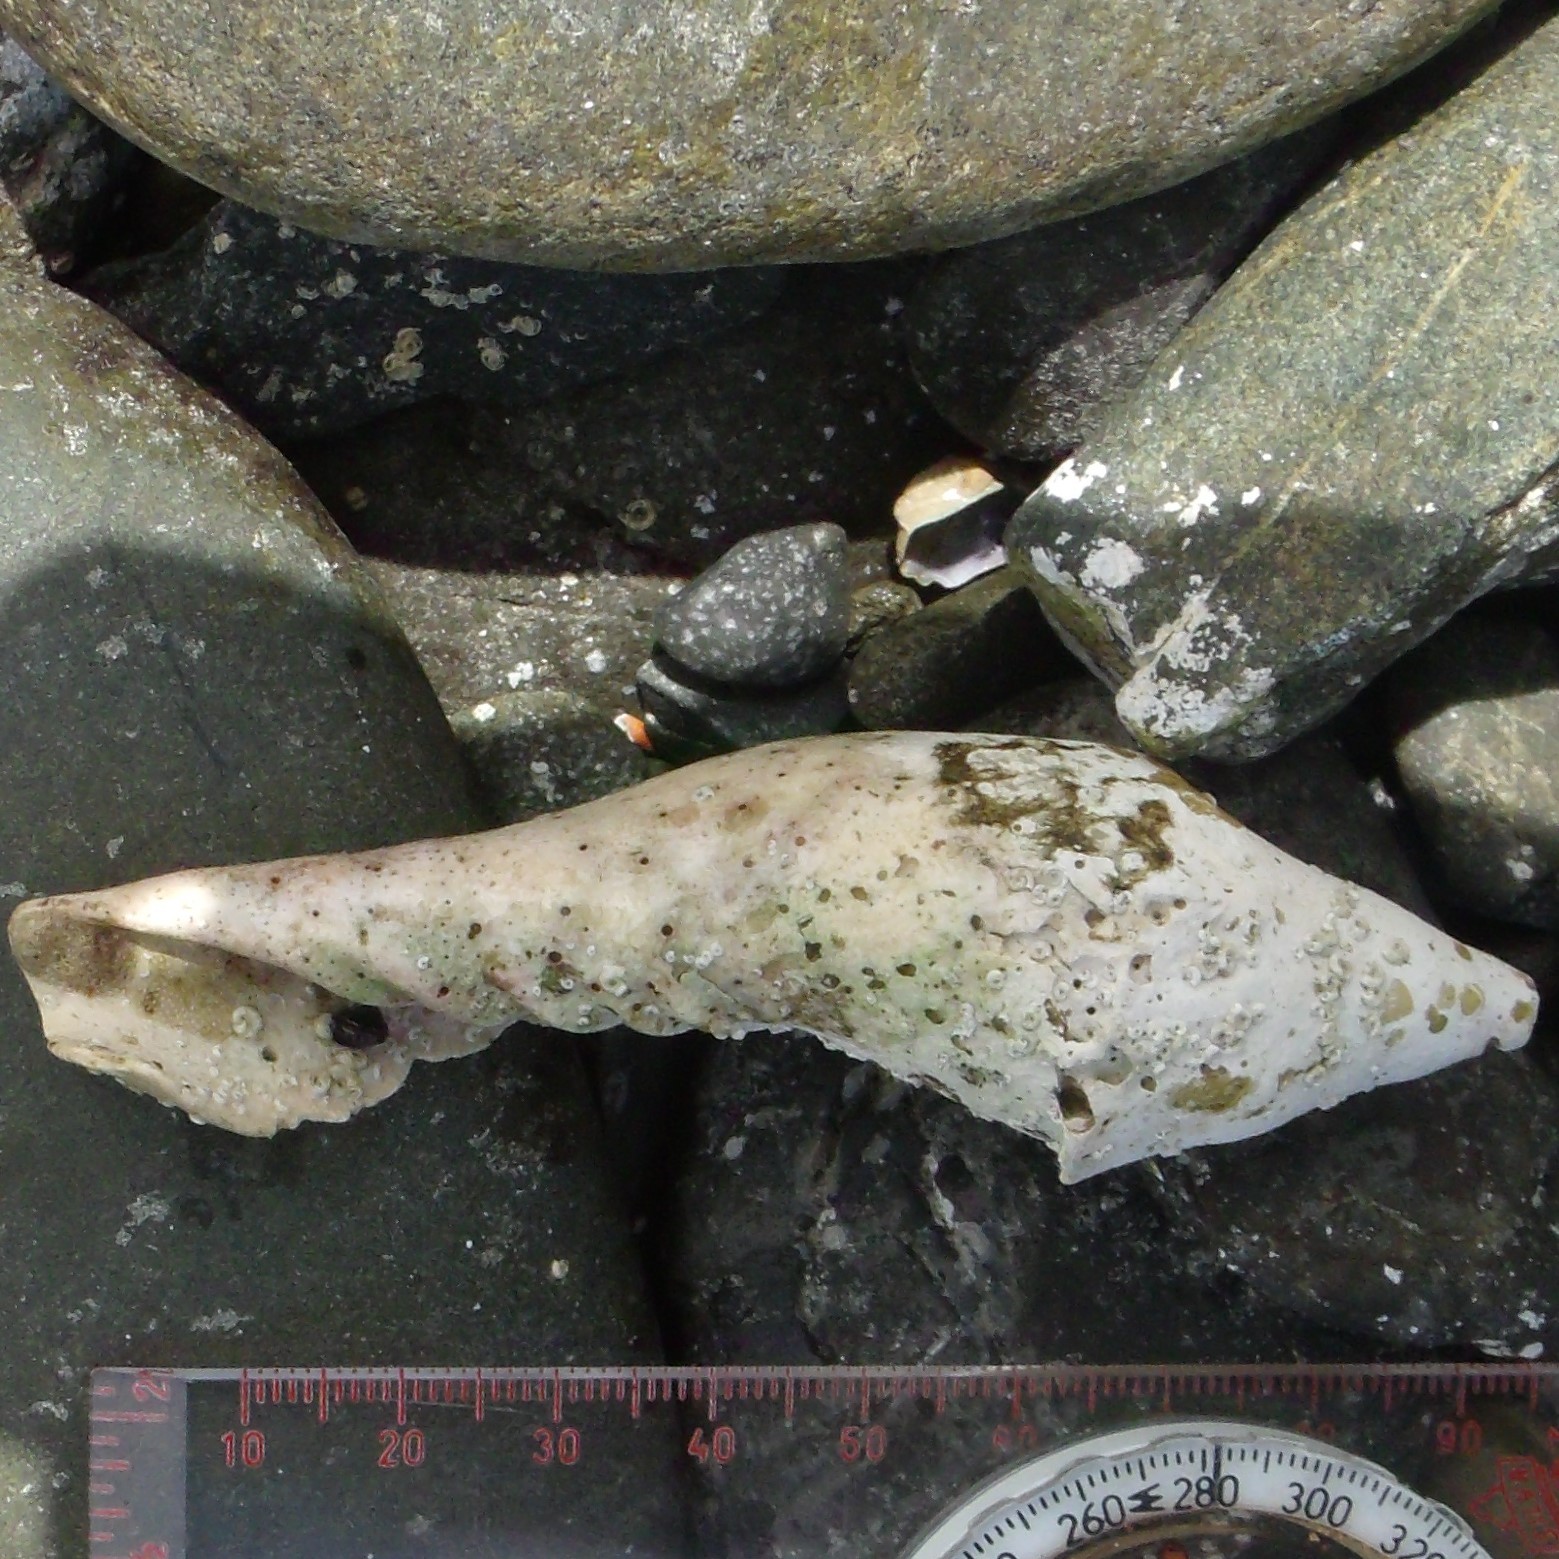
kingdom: Animalia
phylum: Mollusca
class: Gastropoda
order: Neogastropoda
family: Volutidae
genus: Alcithoe
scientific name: Alcithoe arabica
